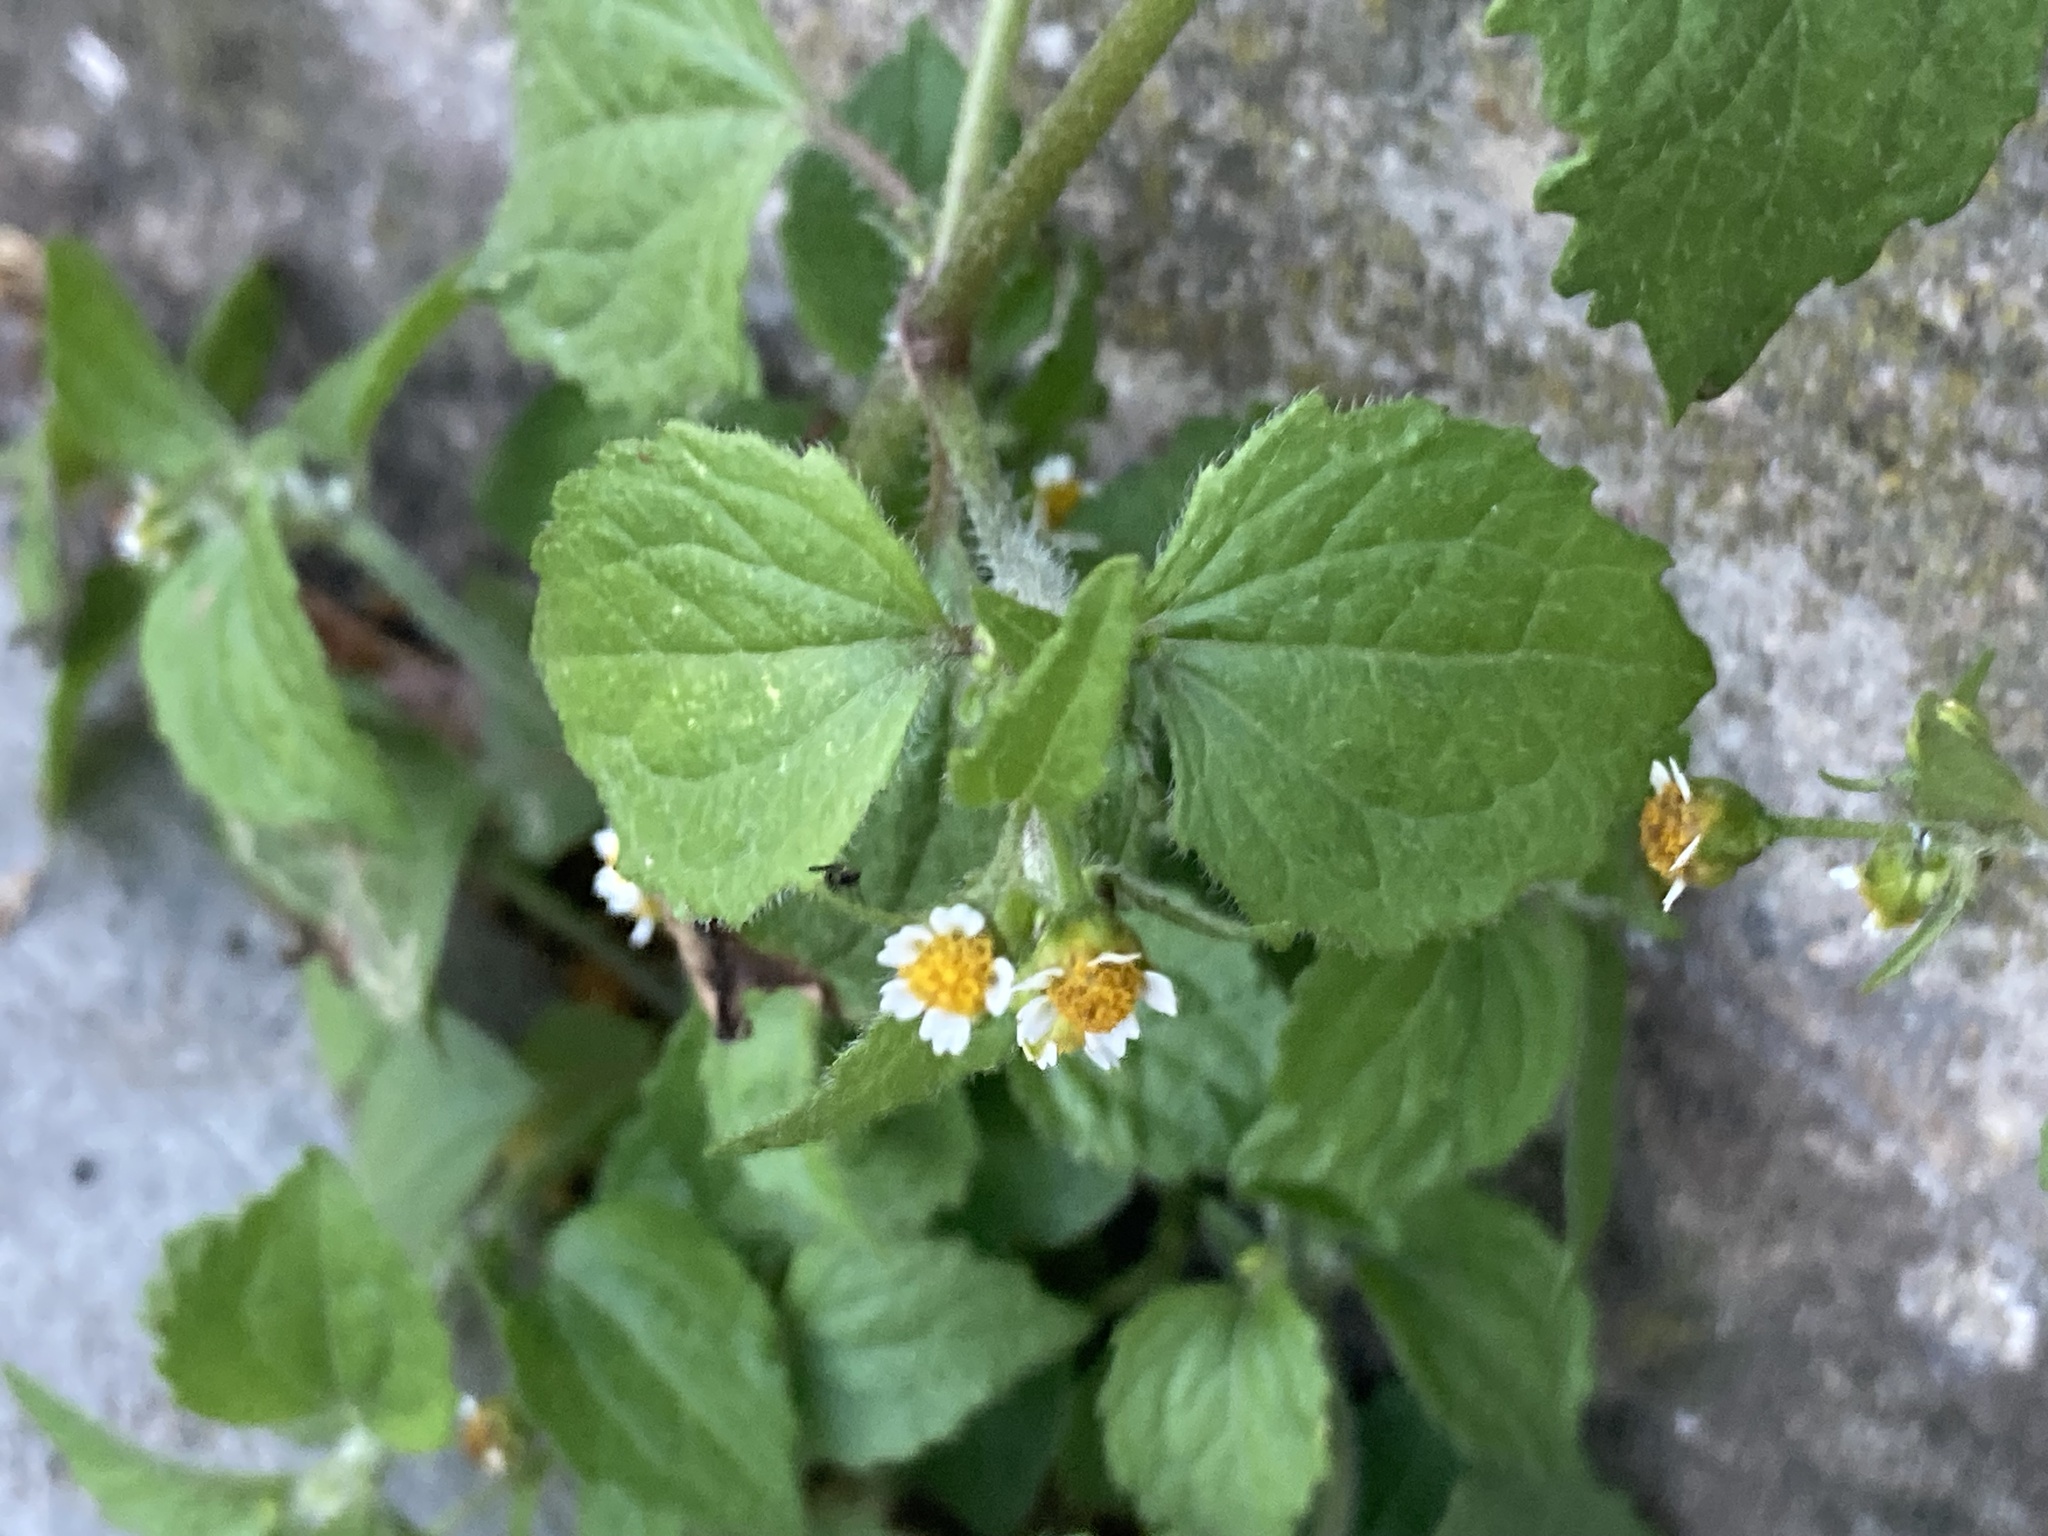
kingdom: Plantae
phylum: Tracheophyta
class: Magnoliopsida
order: Asterales
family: Asteraceae
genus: Galinsoga
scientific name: Galinsoga quadriradiata
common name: Shaggy soldier
